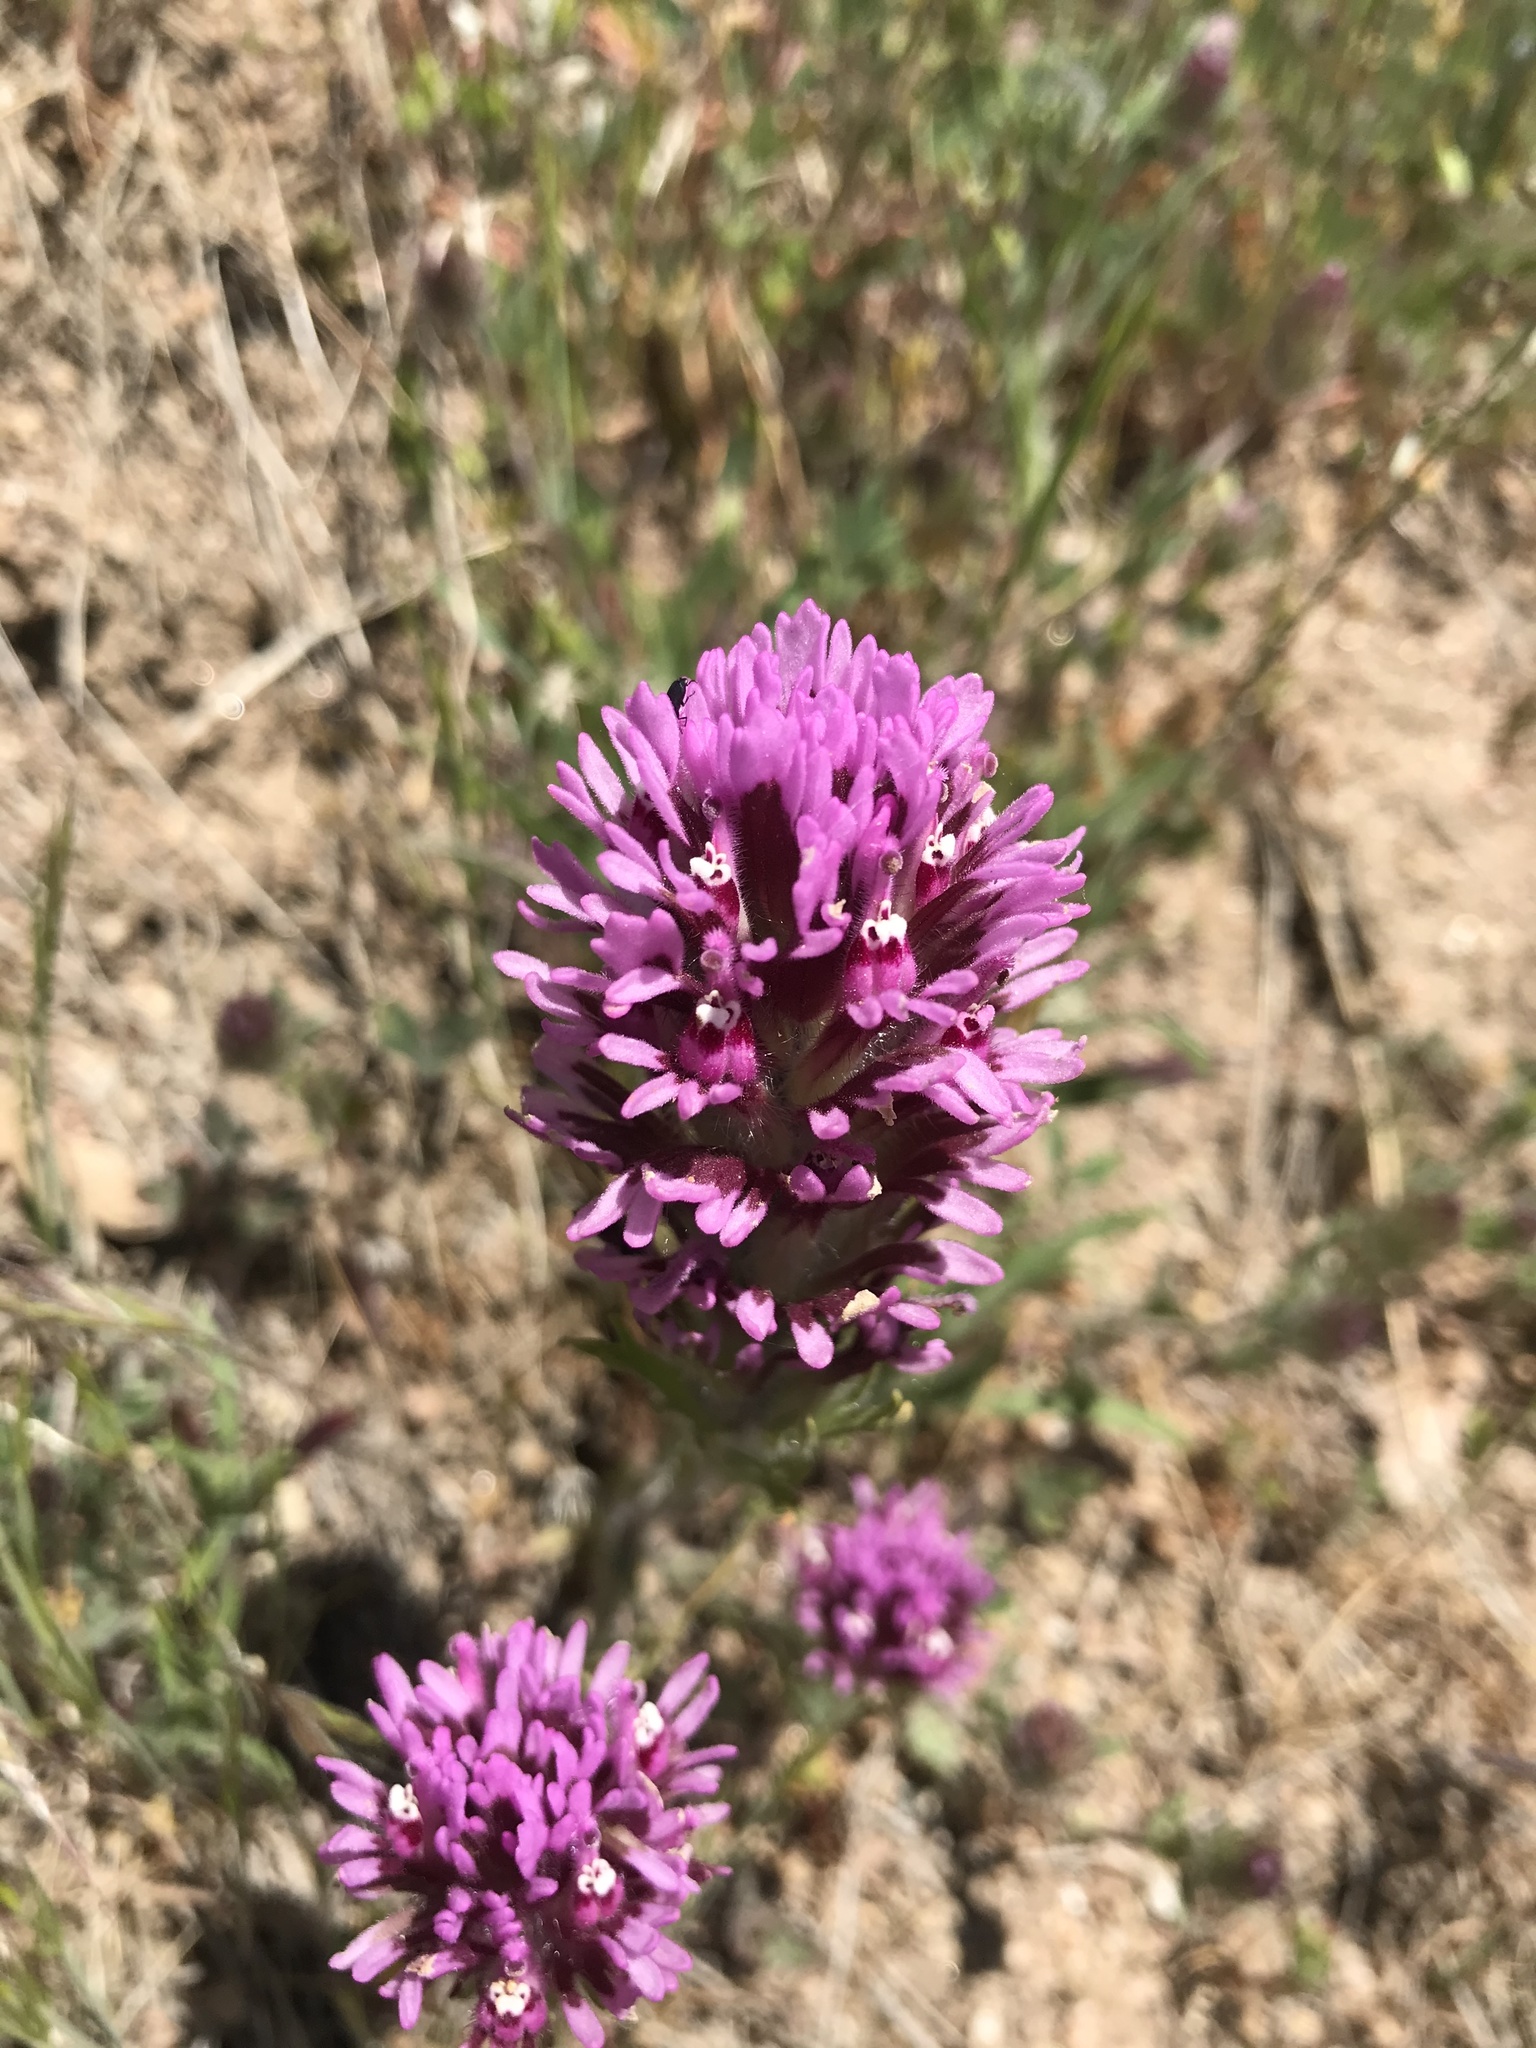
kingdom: Plantae
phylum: Tracheophyta
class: Magnoliopsida
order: Lamiales
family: Orobanchaceae
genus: Castilleja
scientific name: Castilleja exserta
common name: Purple owl-clover
